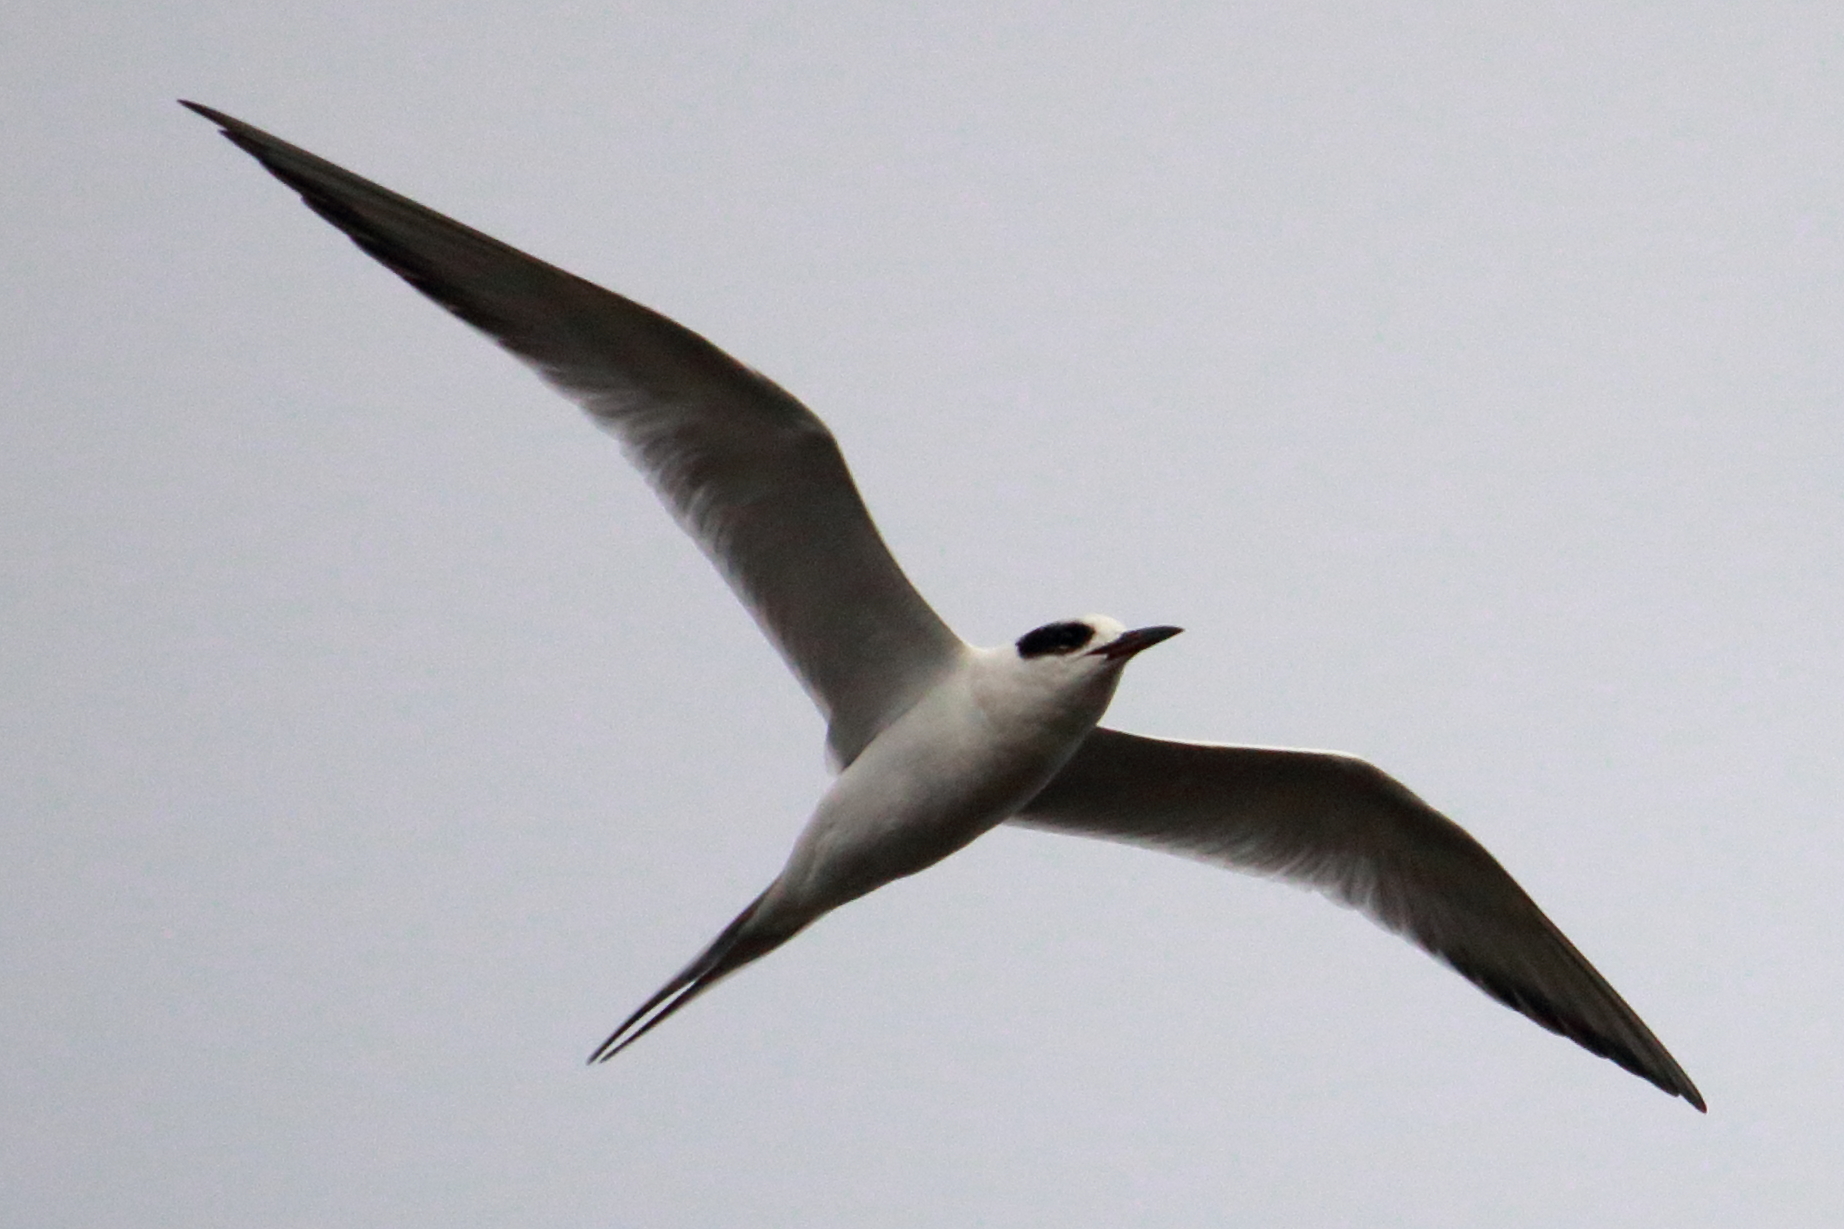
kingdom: Animalia
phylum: Chordata
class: Aves
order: Charadriiformes
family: Laridae
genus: Sterna
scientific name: Sterna forsteri
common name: Forster's tern
